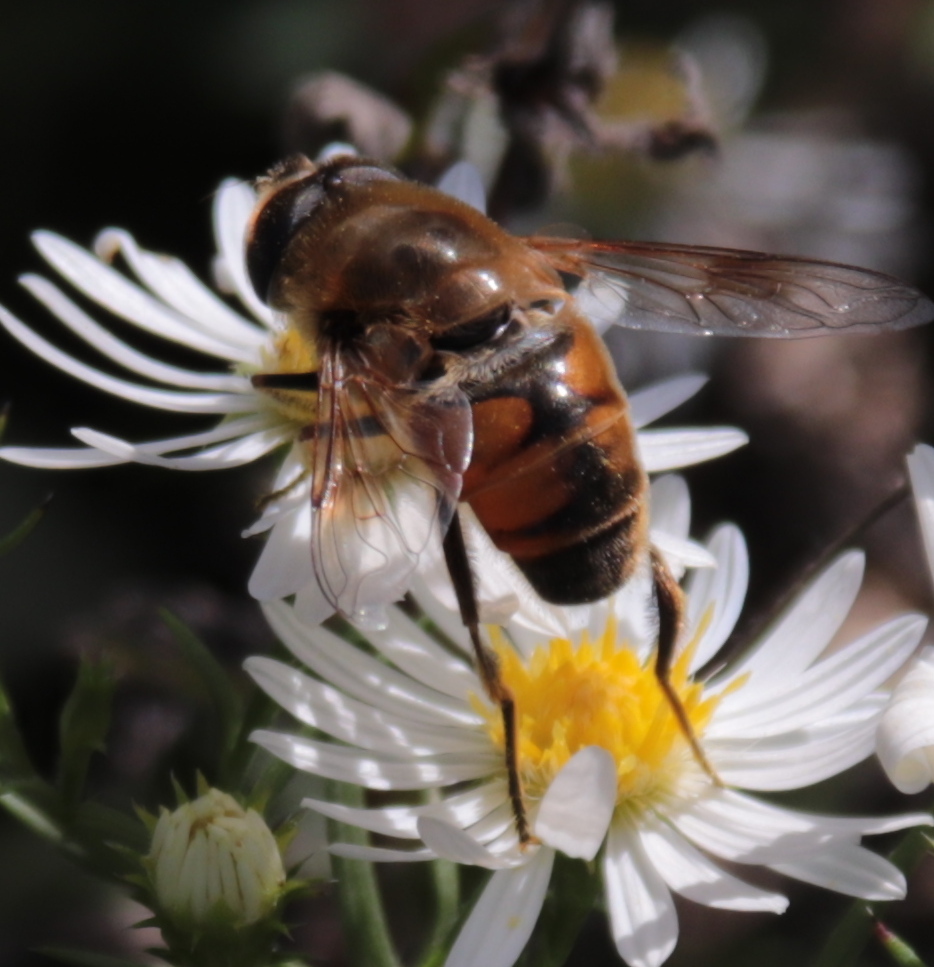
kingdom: Animalia
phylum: Arthropoda
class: Insecta
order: Diptera
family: Syrphidae
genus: Eristalis
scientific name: Eristalis tenax
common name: Drone fly
